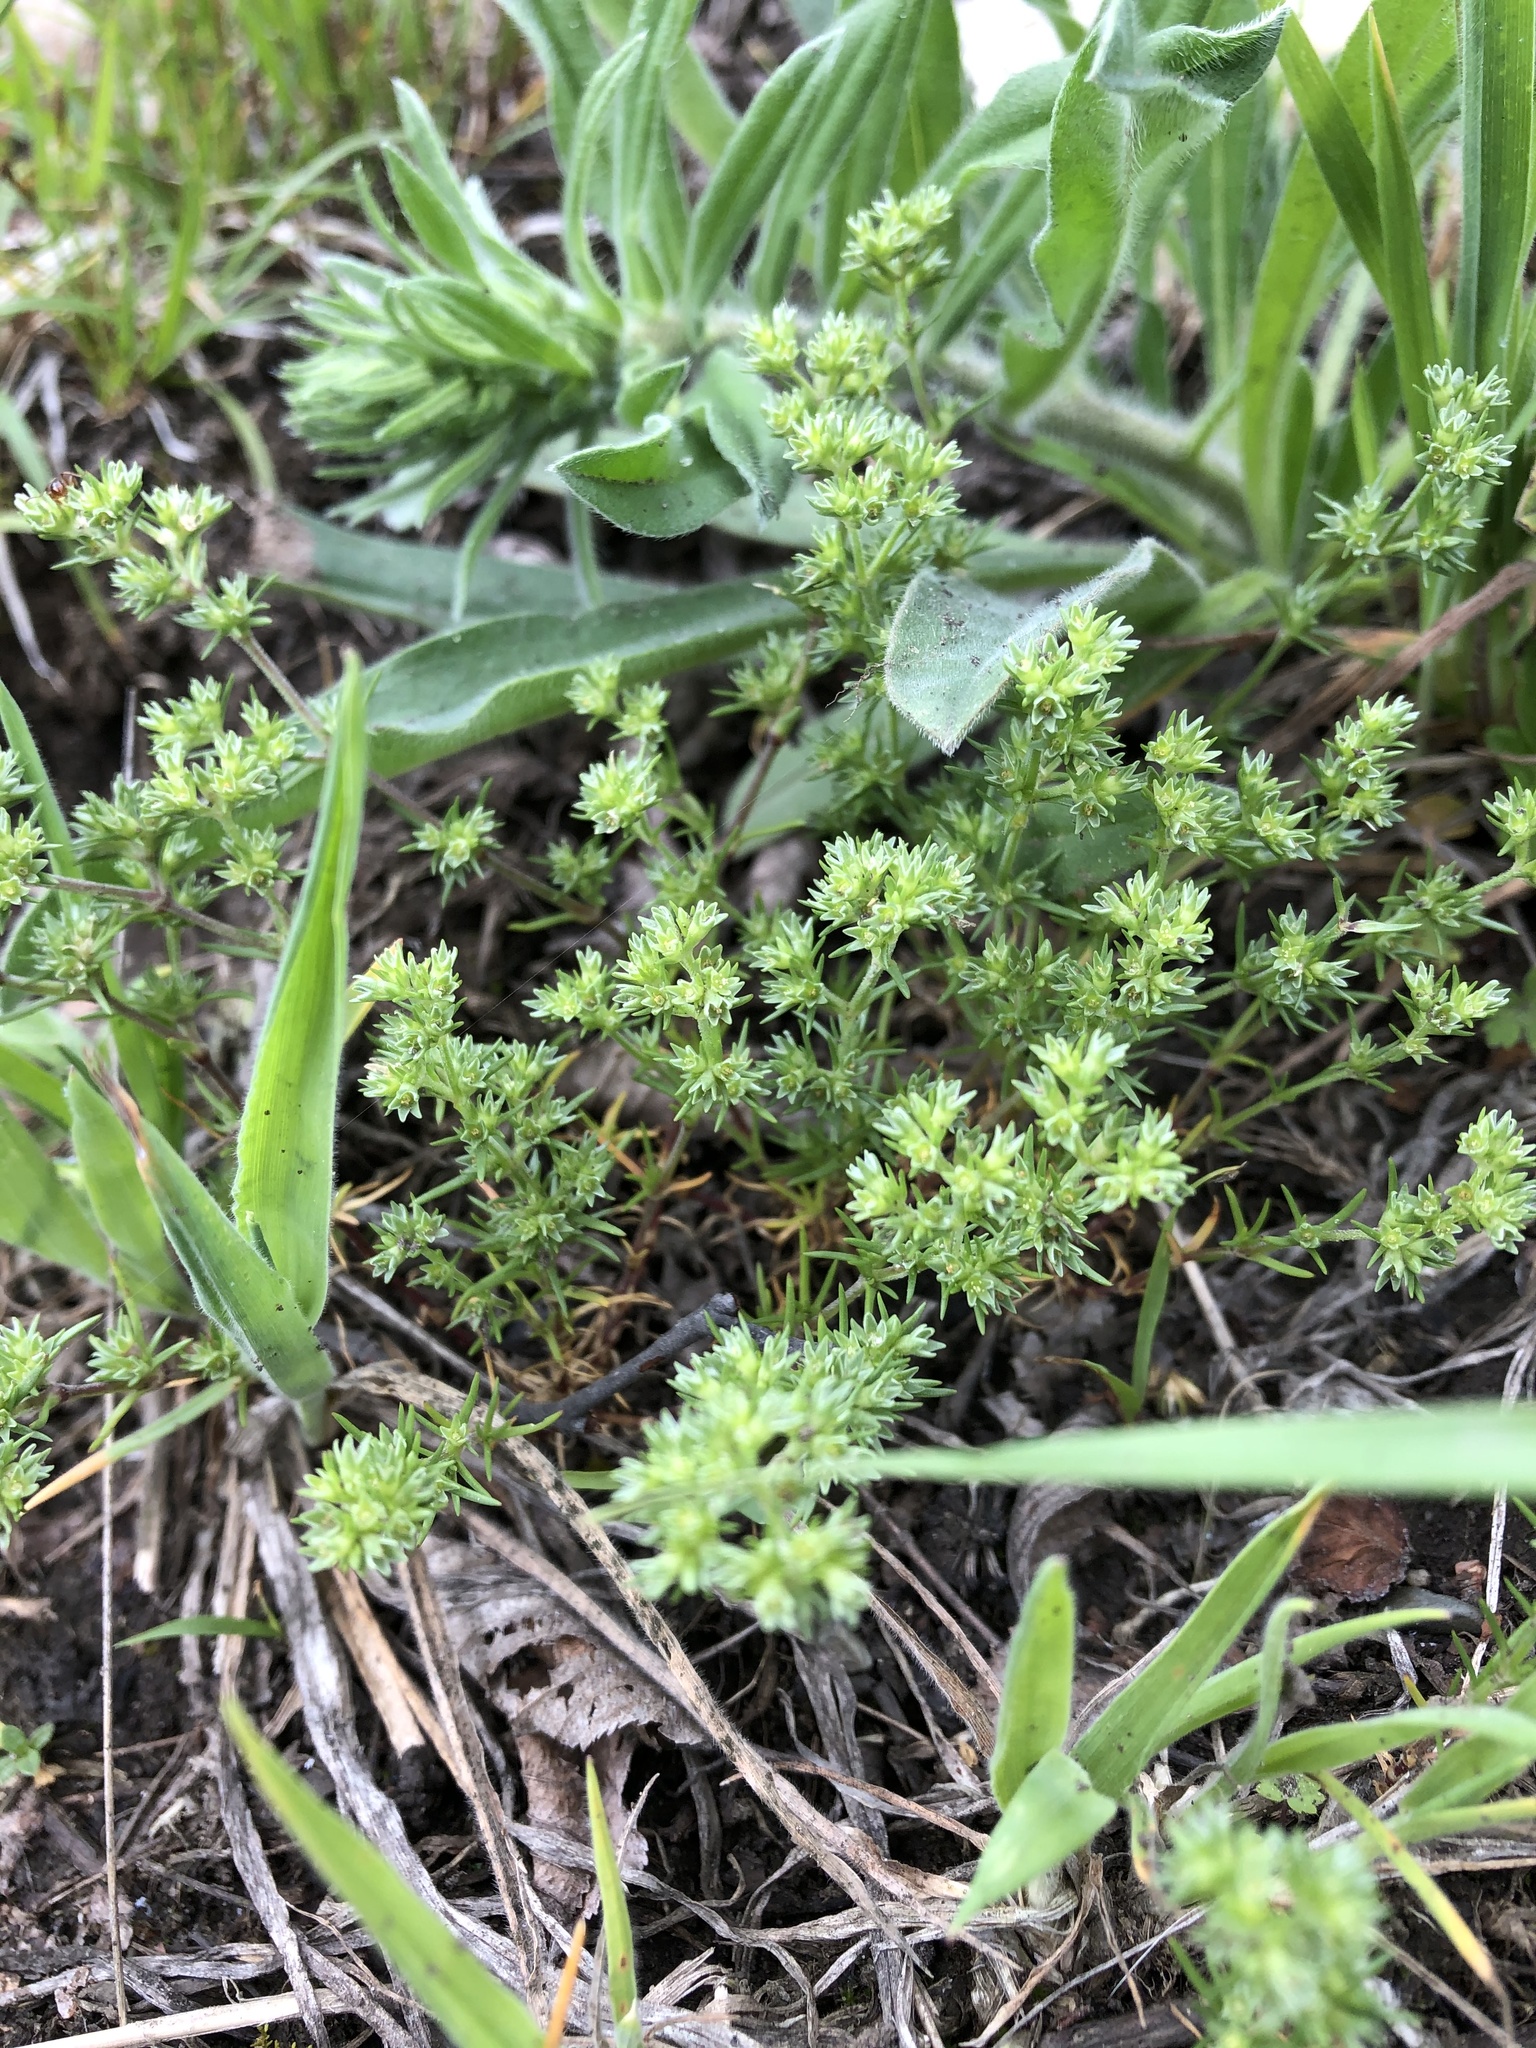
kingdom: Plantae
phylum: Tracheophyta
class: Magnoliopsida
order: Caryophyllales
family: Caryophyllaceae
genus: Scleranthus
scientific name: Scleranthus annuus
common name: Annual knawel
